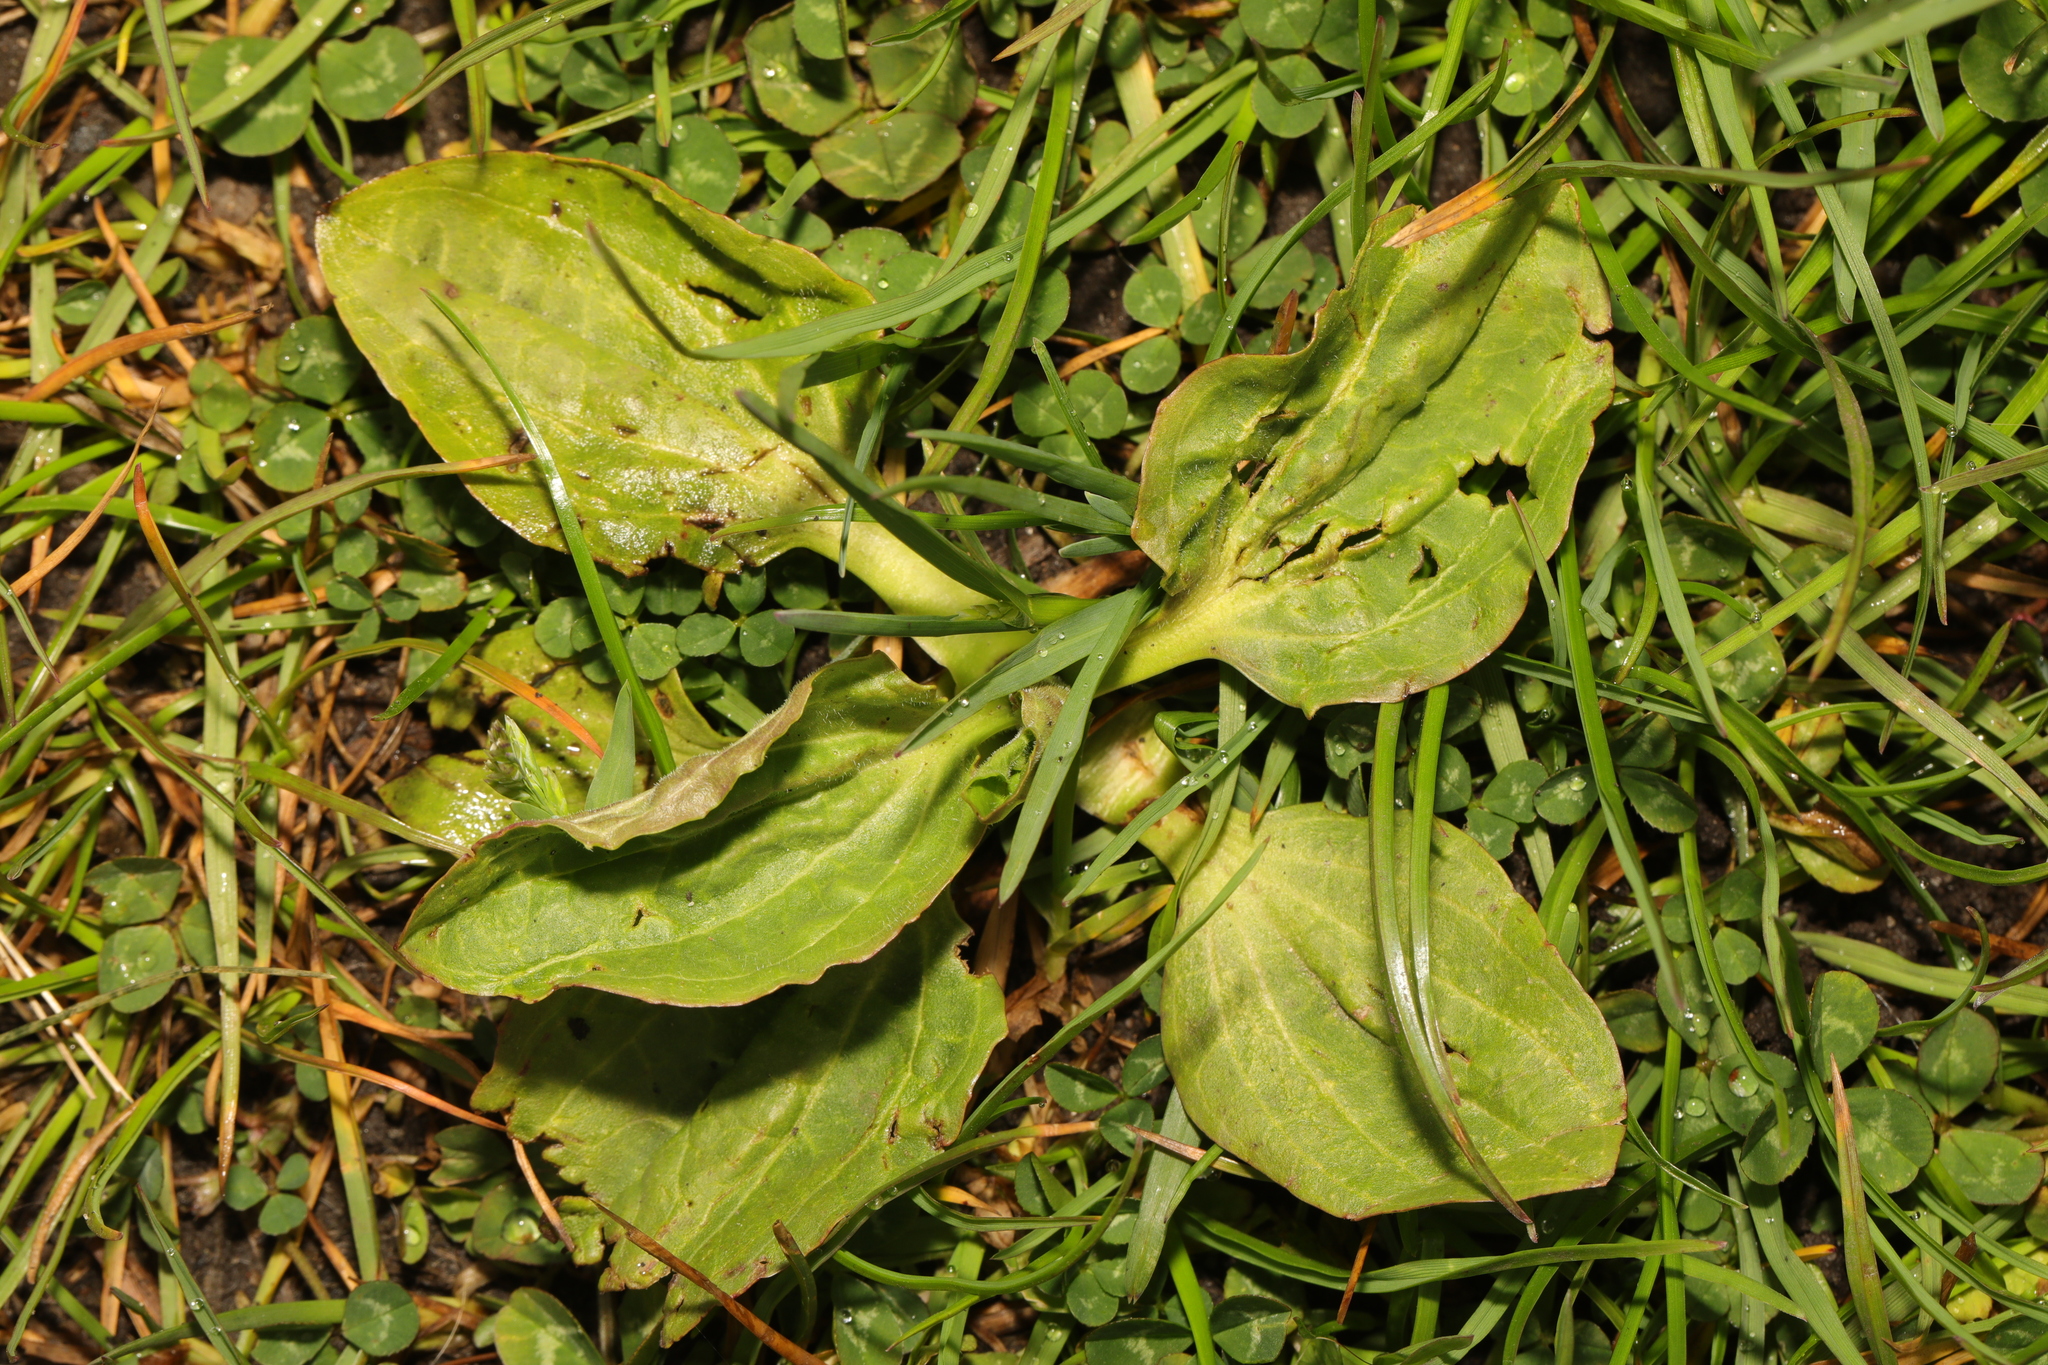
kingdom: Plantae
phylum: Tracheophyta
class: Magnoliopsida
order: Lamiales
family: Plantaginaceae
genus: Plantago
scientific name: Plantago major
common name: Common plantain
